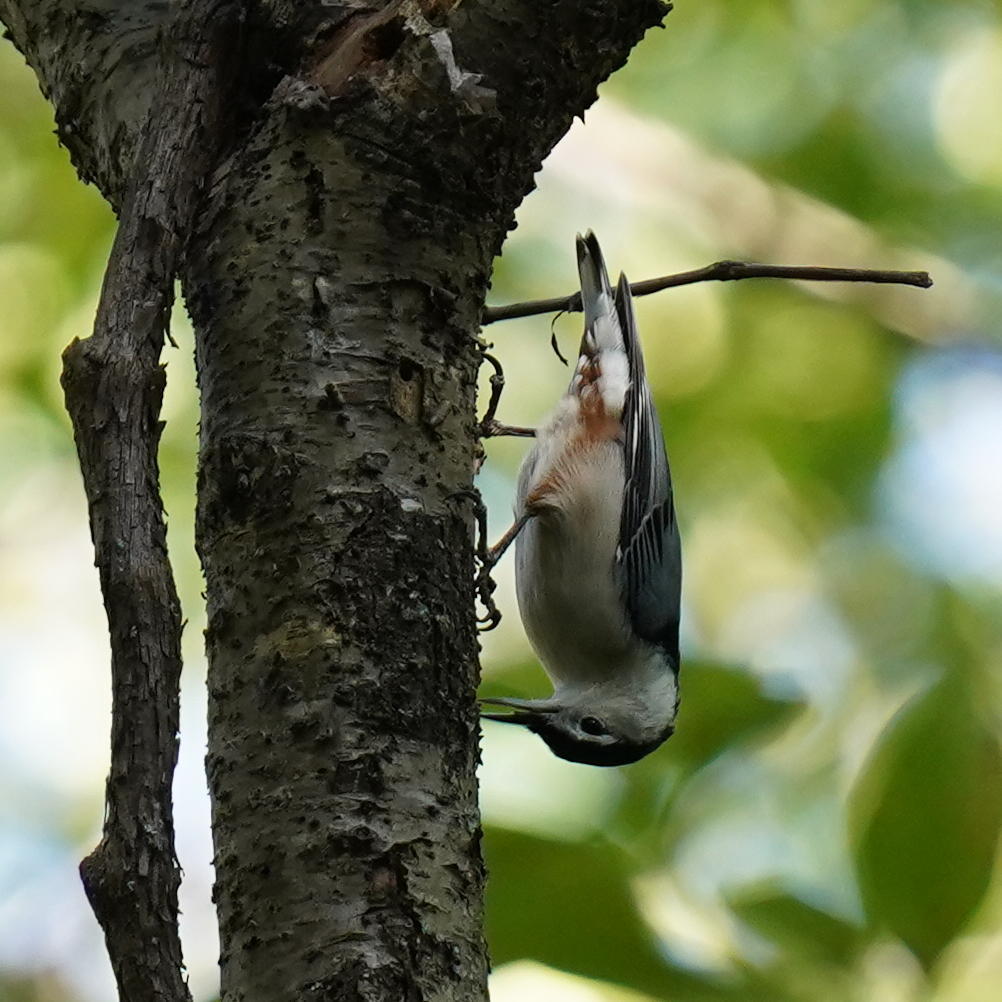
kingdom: Animalia
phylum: Chordata
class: Aves
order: Passeriformes
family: Sittidae
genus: Sitta
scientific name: Sitta carolinensis
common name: White-breasted nuthatch
